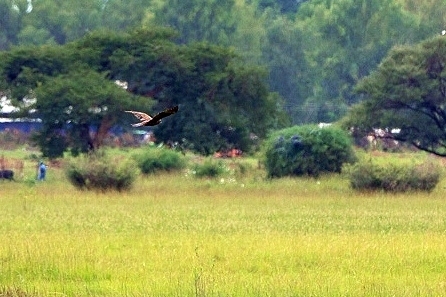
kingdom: Animalia
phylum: Chordata
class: Aves
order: Accipitriformes
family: Accipitridae
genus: Circus
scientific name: Circus aeruginosus
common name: Western marsh harrier
